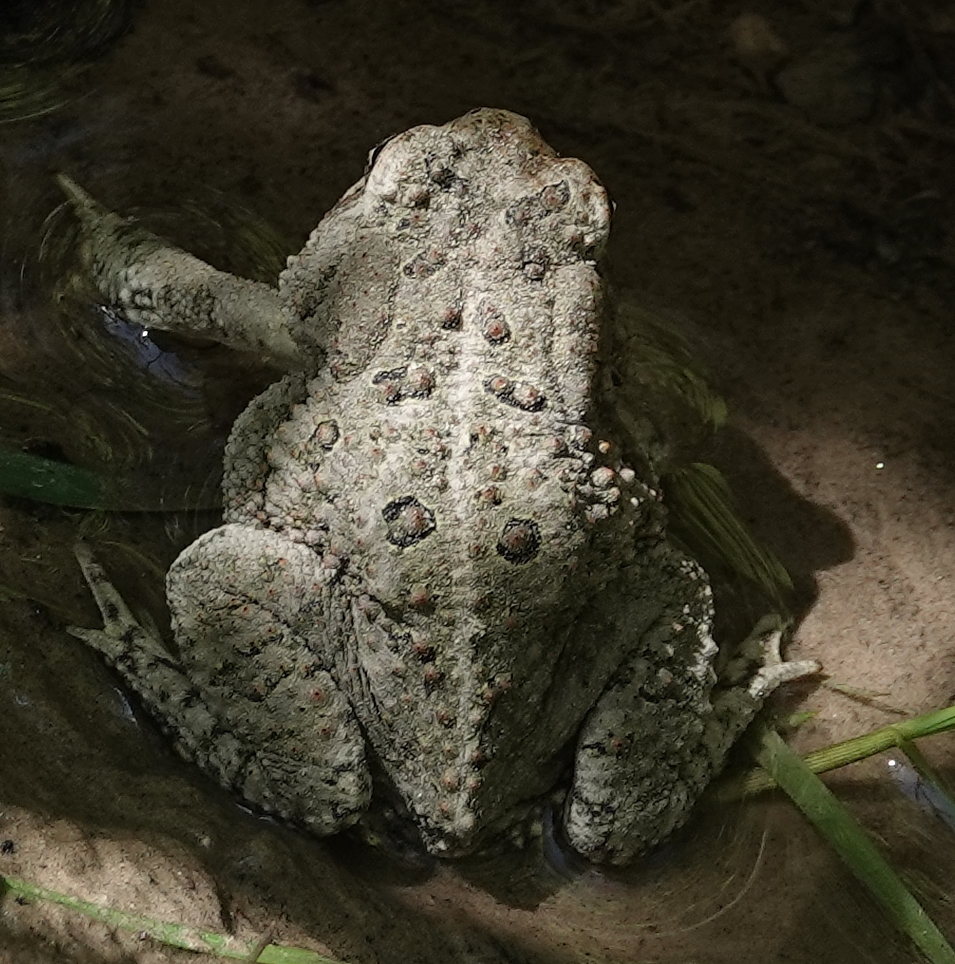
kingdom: Animalia
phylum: Chordata
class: Amphibia
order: Anura
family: Bufonidae
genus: Anaxyrus
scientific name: Anaxyrus woodhousii
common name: Woodhouse's toad
